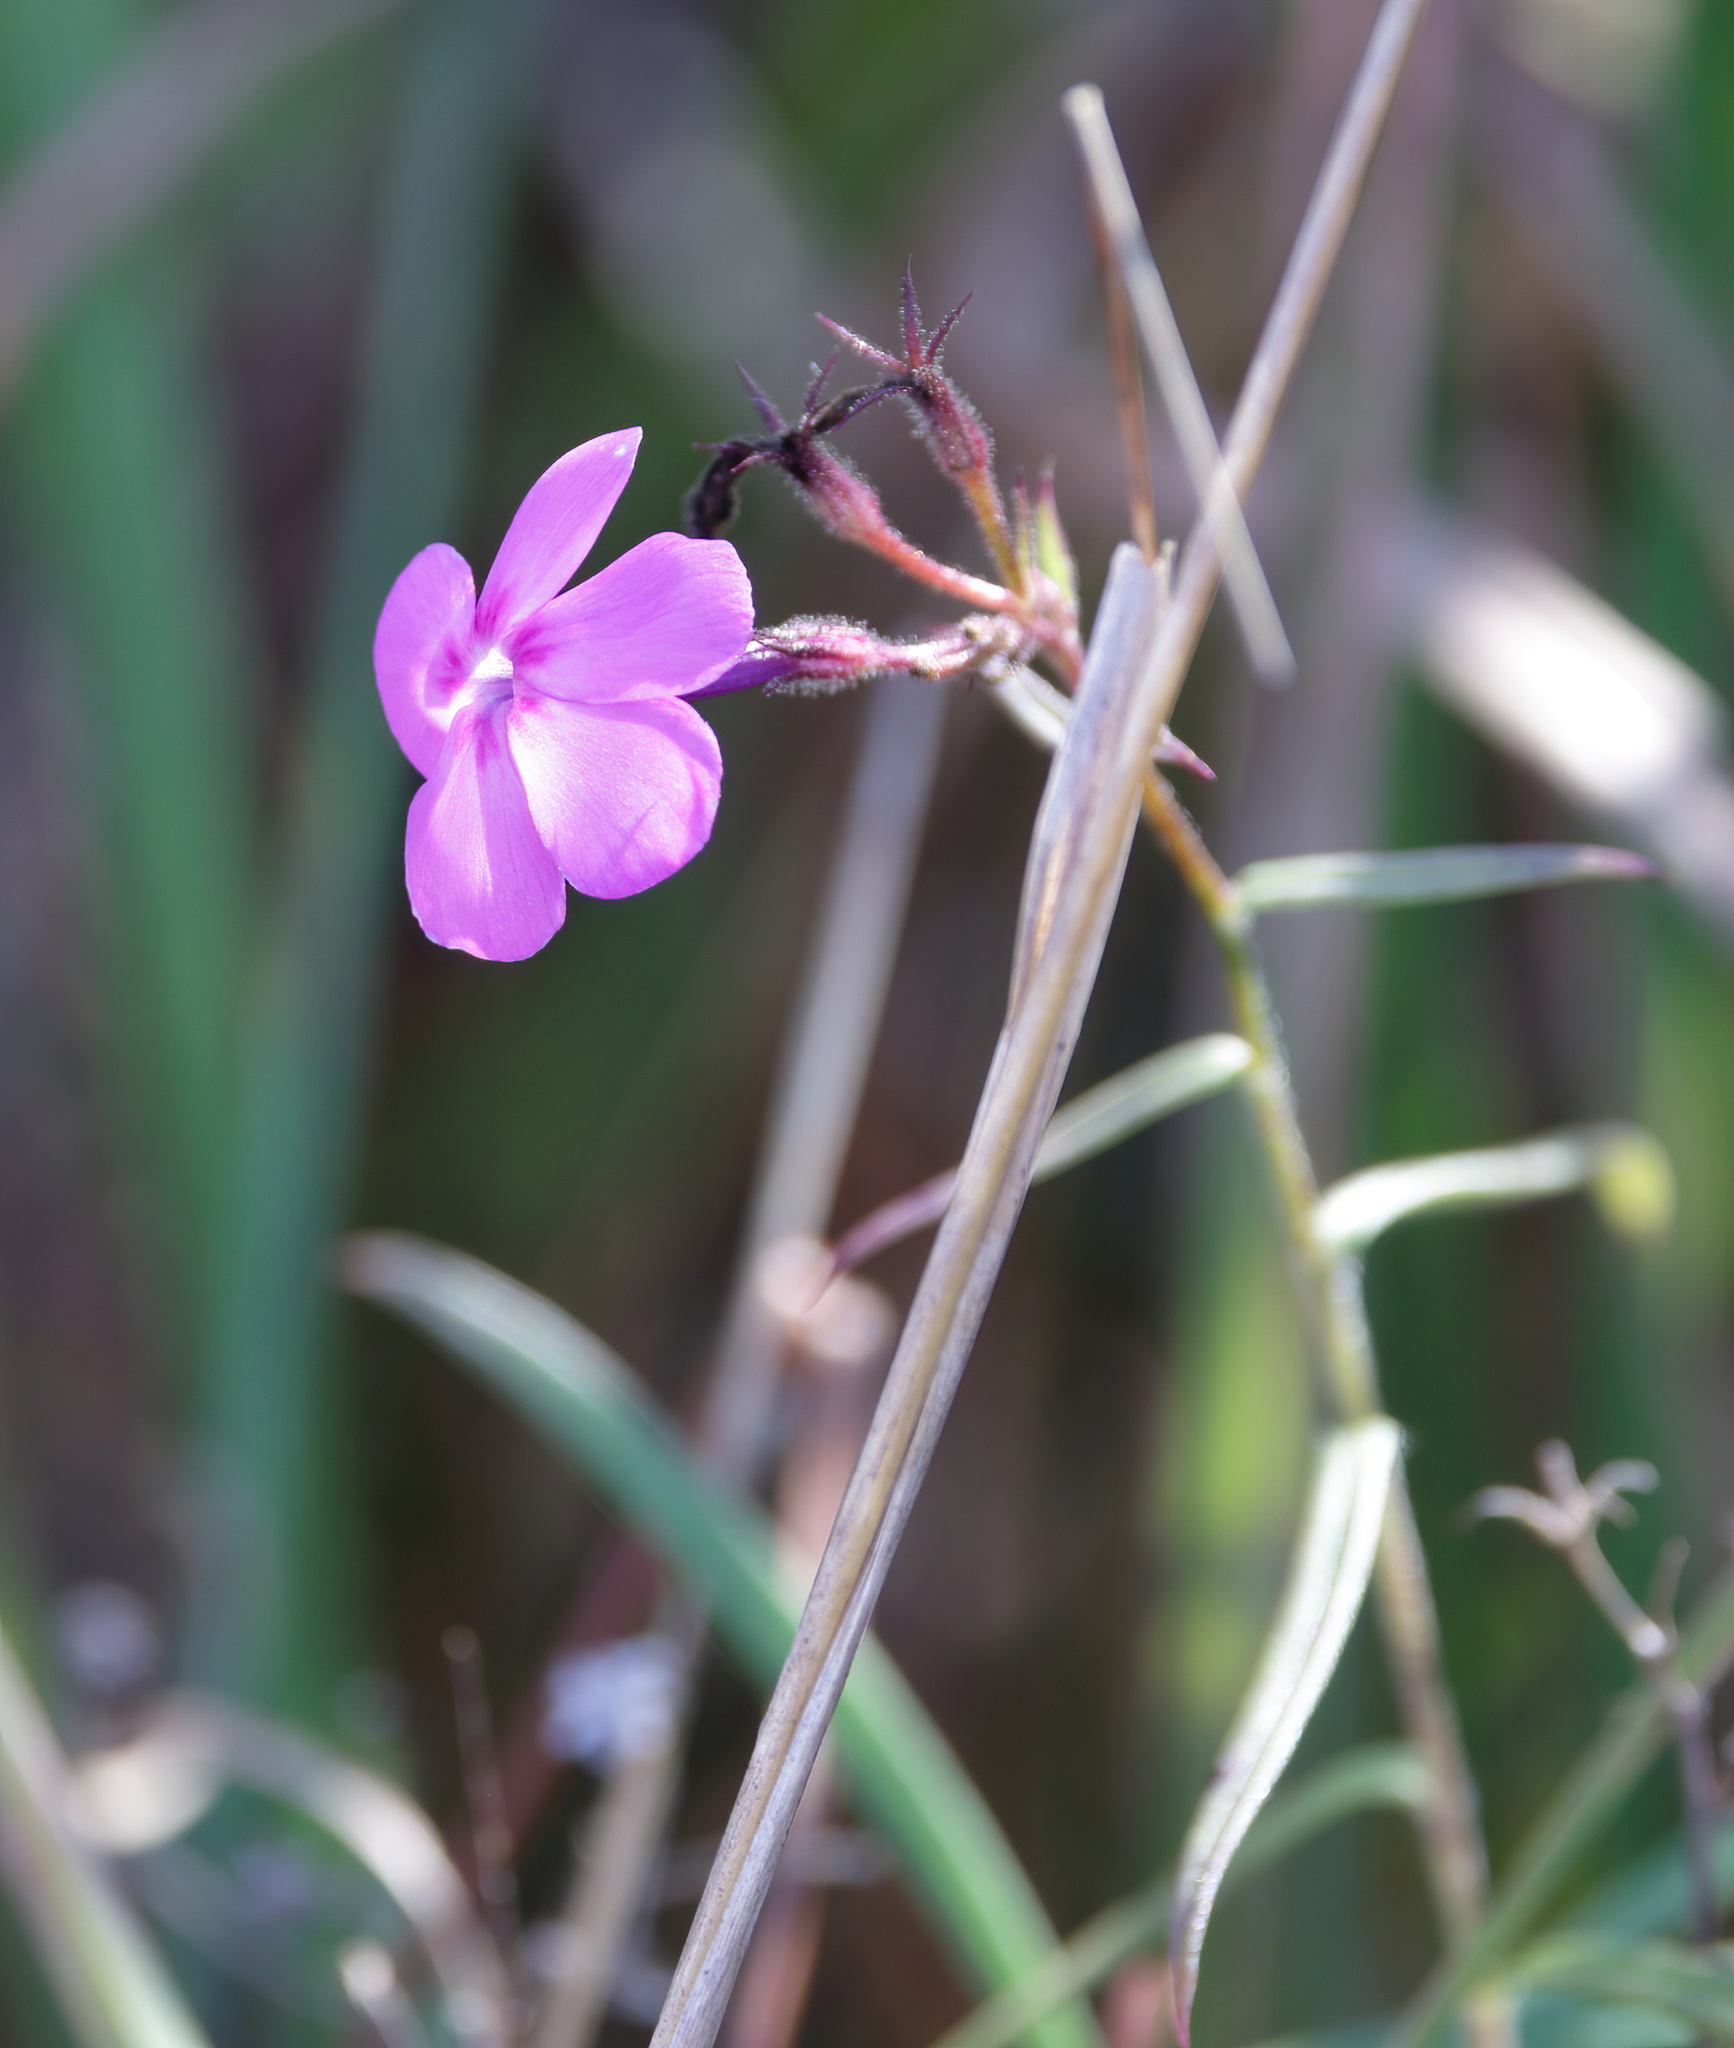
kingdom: Plantae
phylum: Tracheophyta
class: Magnoliopsida
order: Ericales
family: Polemoniaceae
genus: Phlox
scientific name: Phlox pilosa
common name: Prairie phlox
